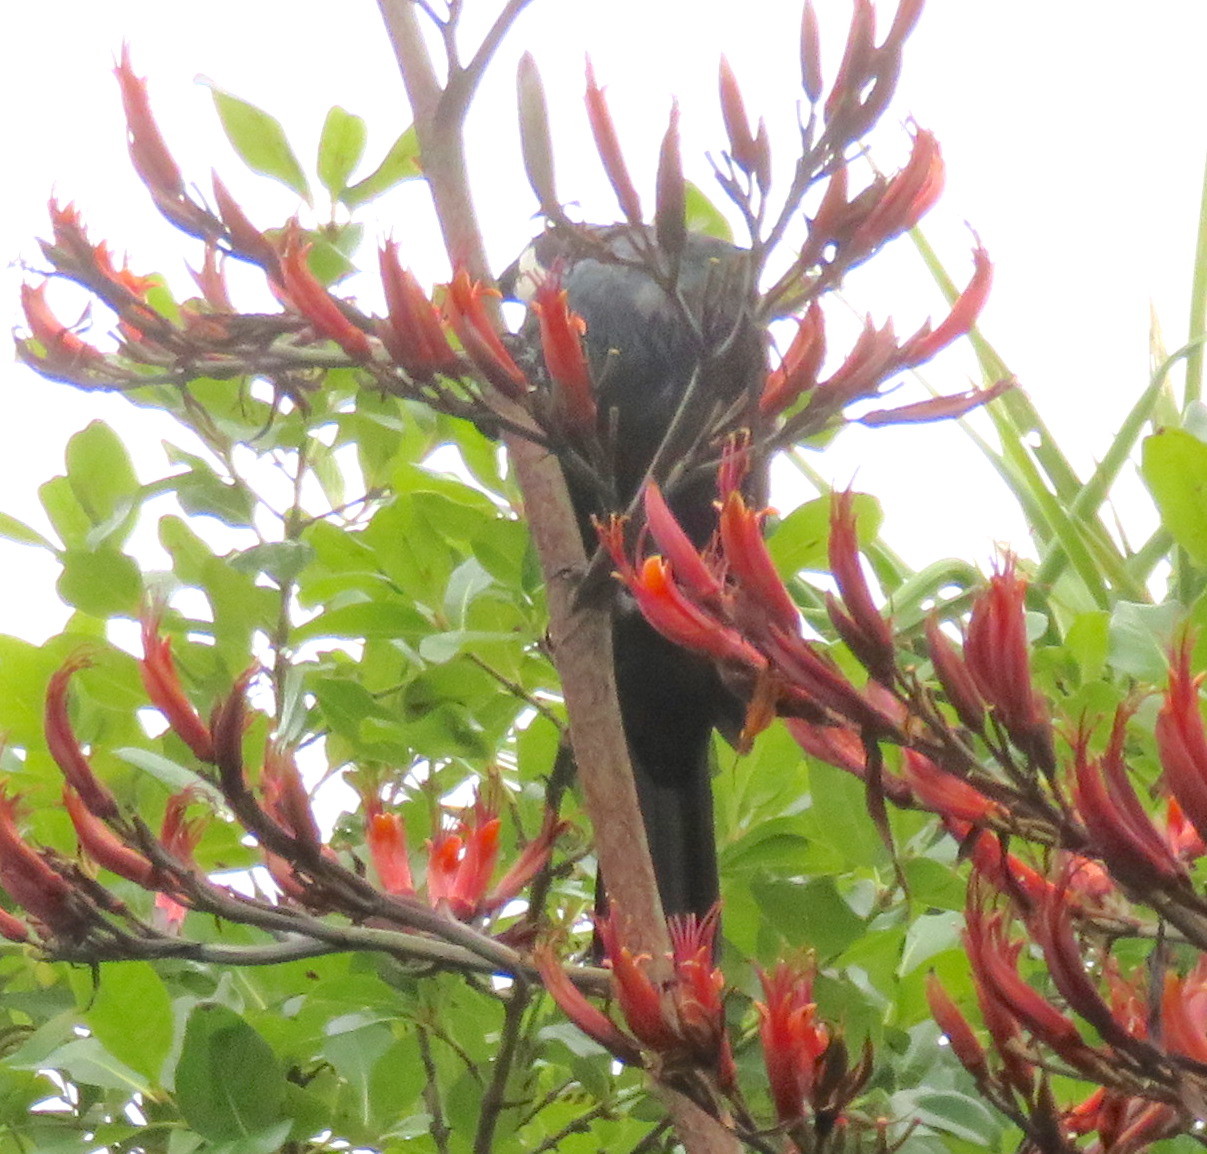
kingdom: Animalia
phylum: Chordata
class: Aves
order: Passeriformes
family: Meliphagidae
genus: Prosthemadera
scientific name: Prosthemadera novaeseelandiae
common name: Tui
